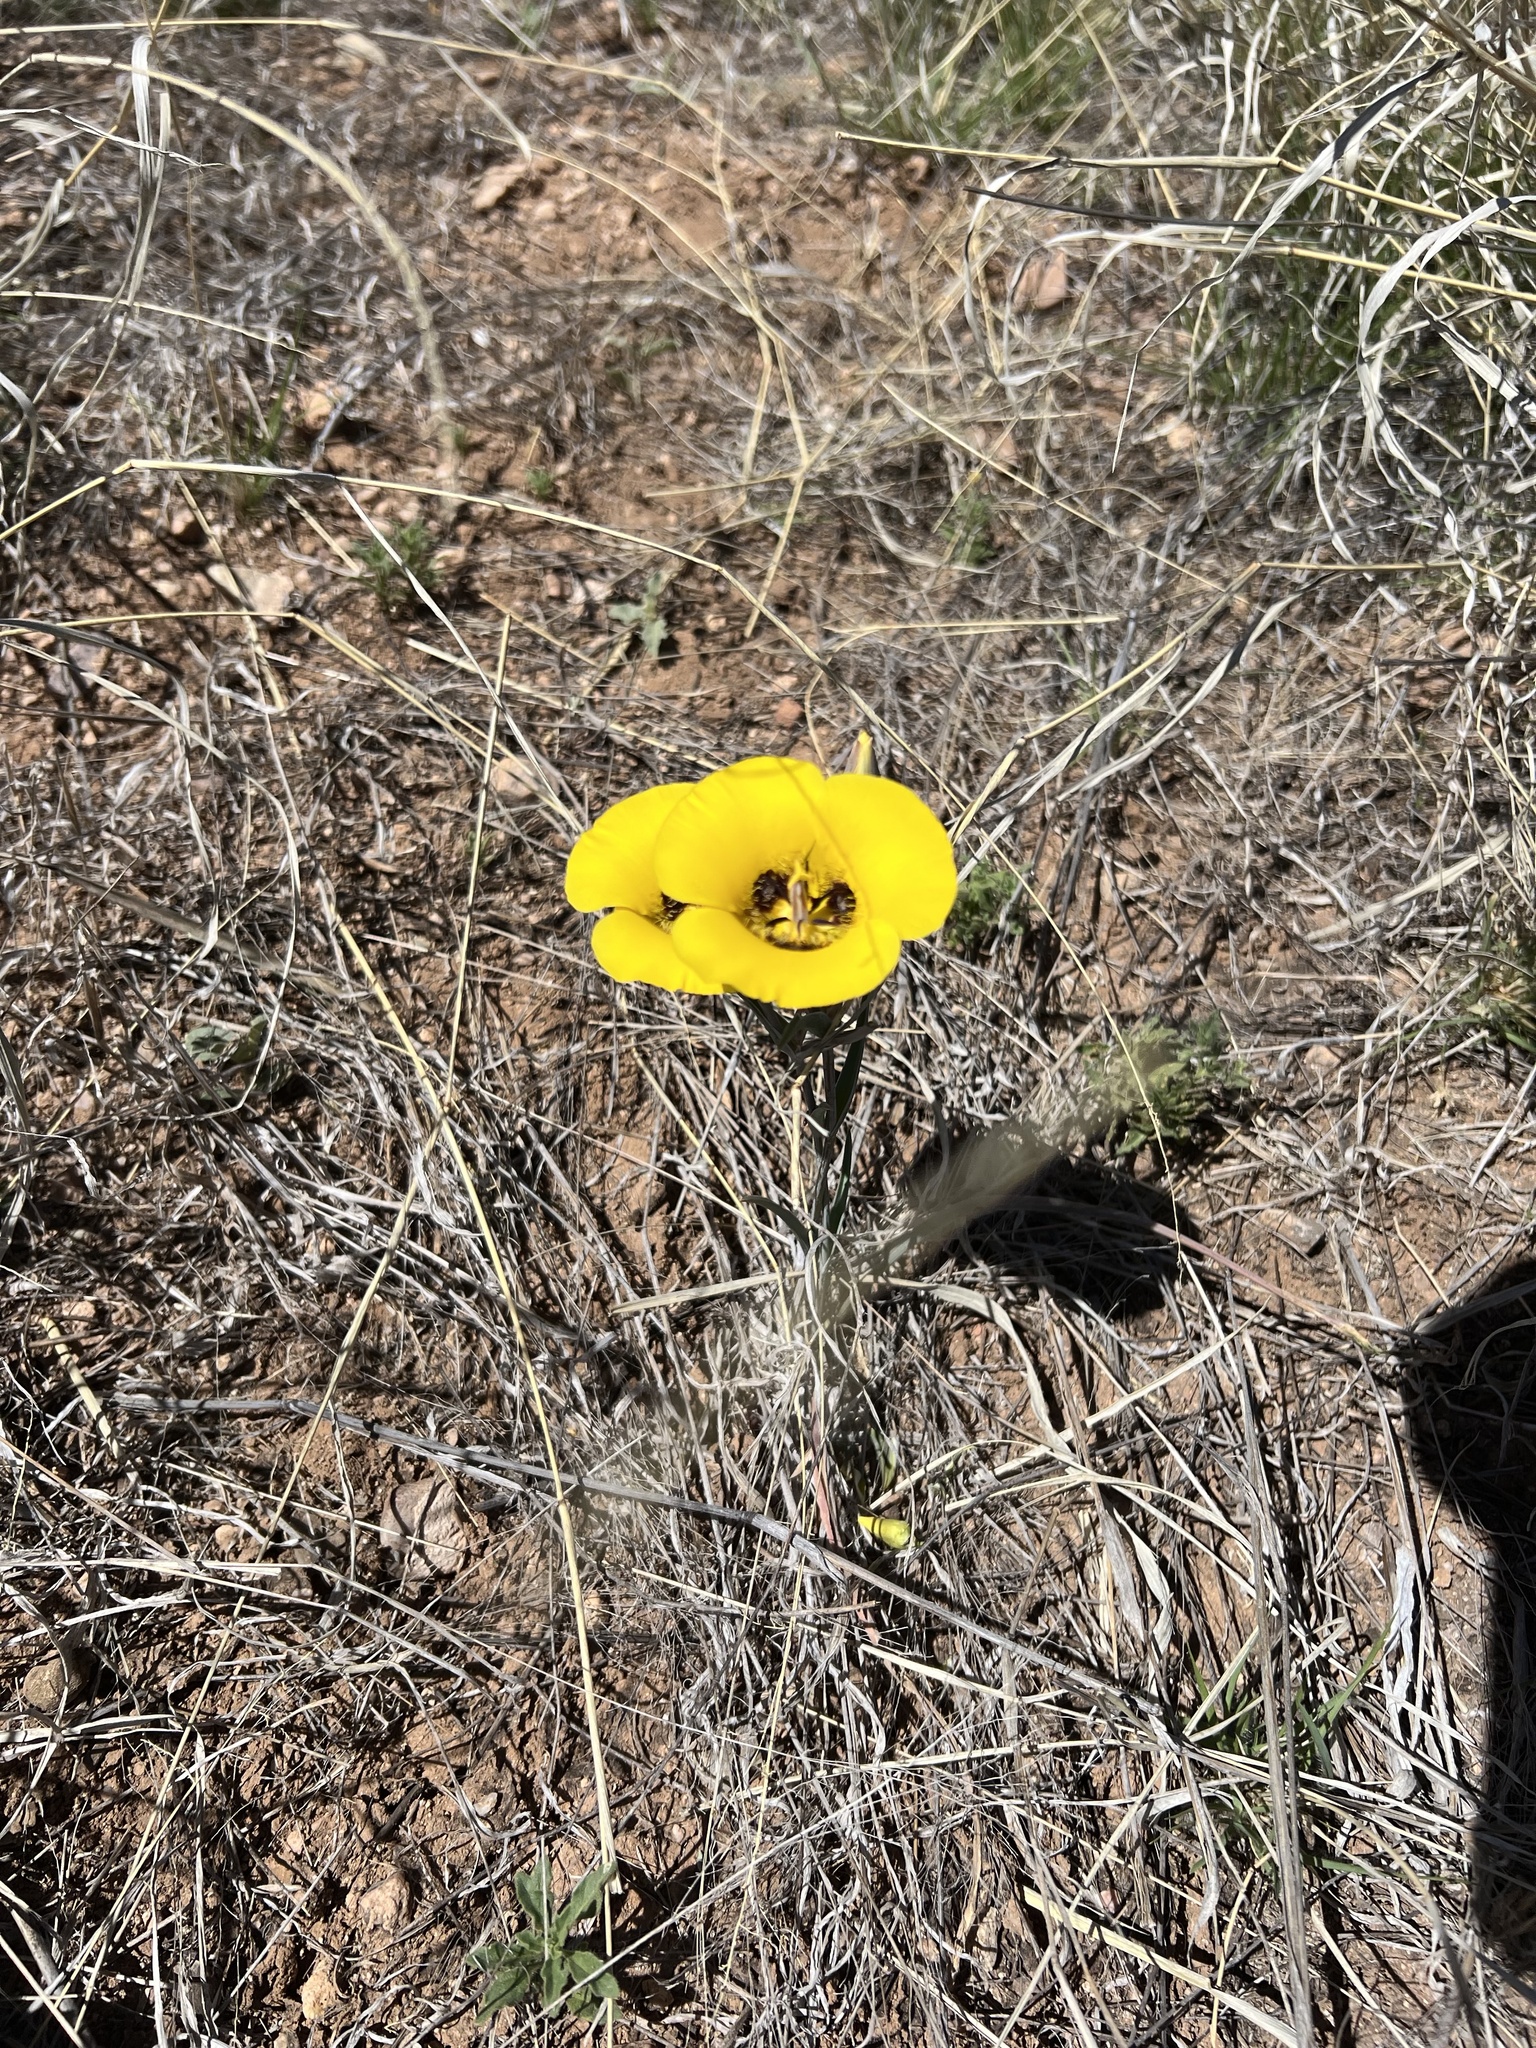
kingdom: Plantae
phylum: Tracheophyta
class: Liliopsida
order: Liliales
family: Liliaceae
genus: Calochortus
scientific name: Calochortus kennedyi
